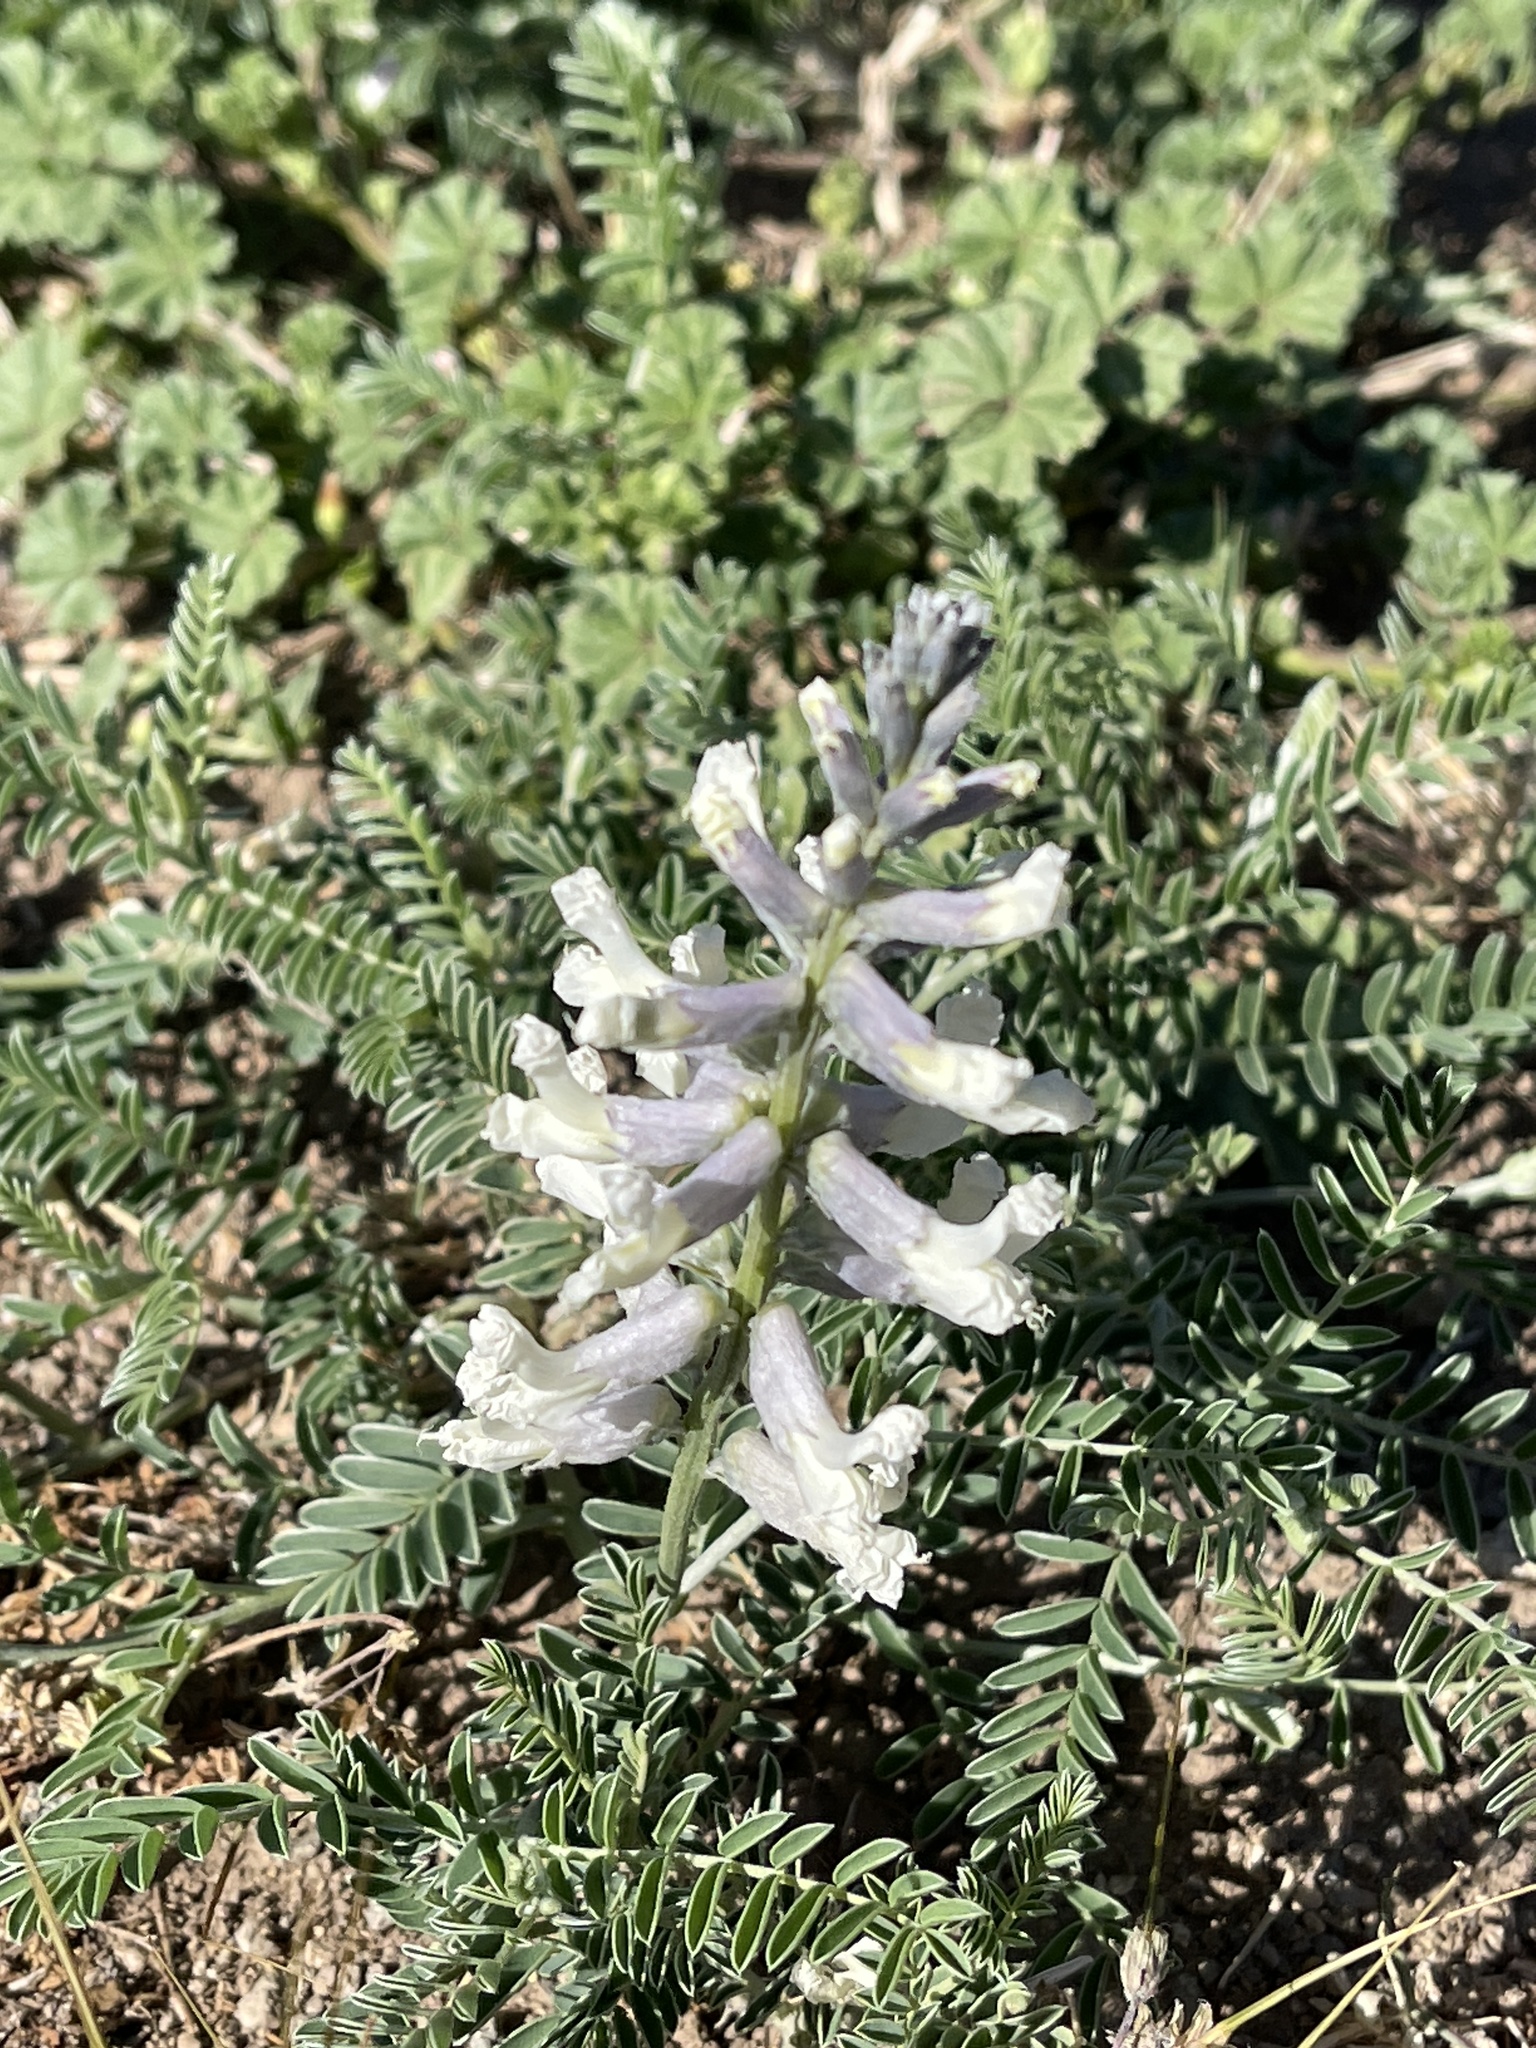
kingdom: Plantae
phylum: Tracheophyta
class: Magnoliopsida
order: Fabales
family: Fabaceae
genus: Sophora
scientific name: Sophora nuttalliana
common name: Silky sophora
